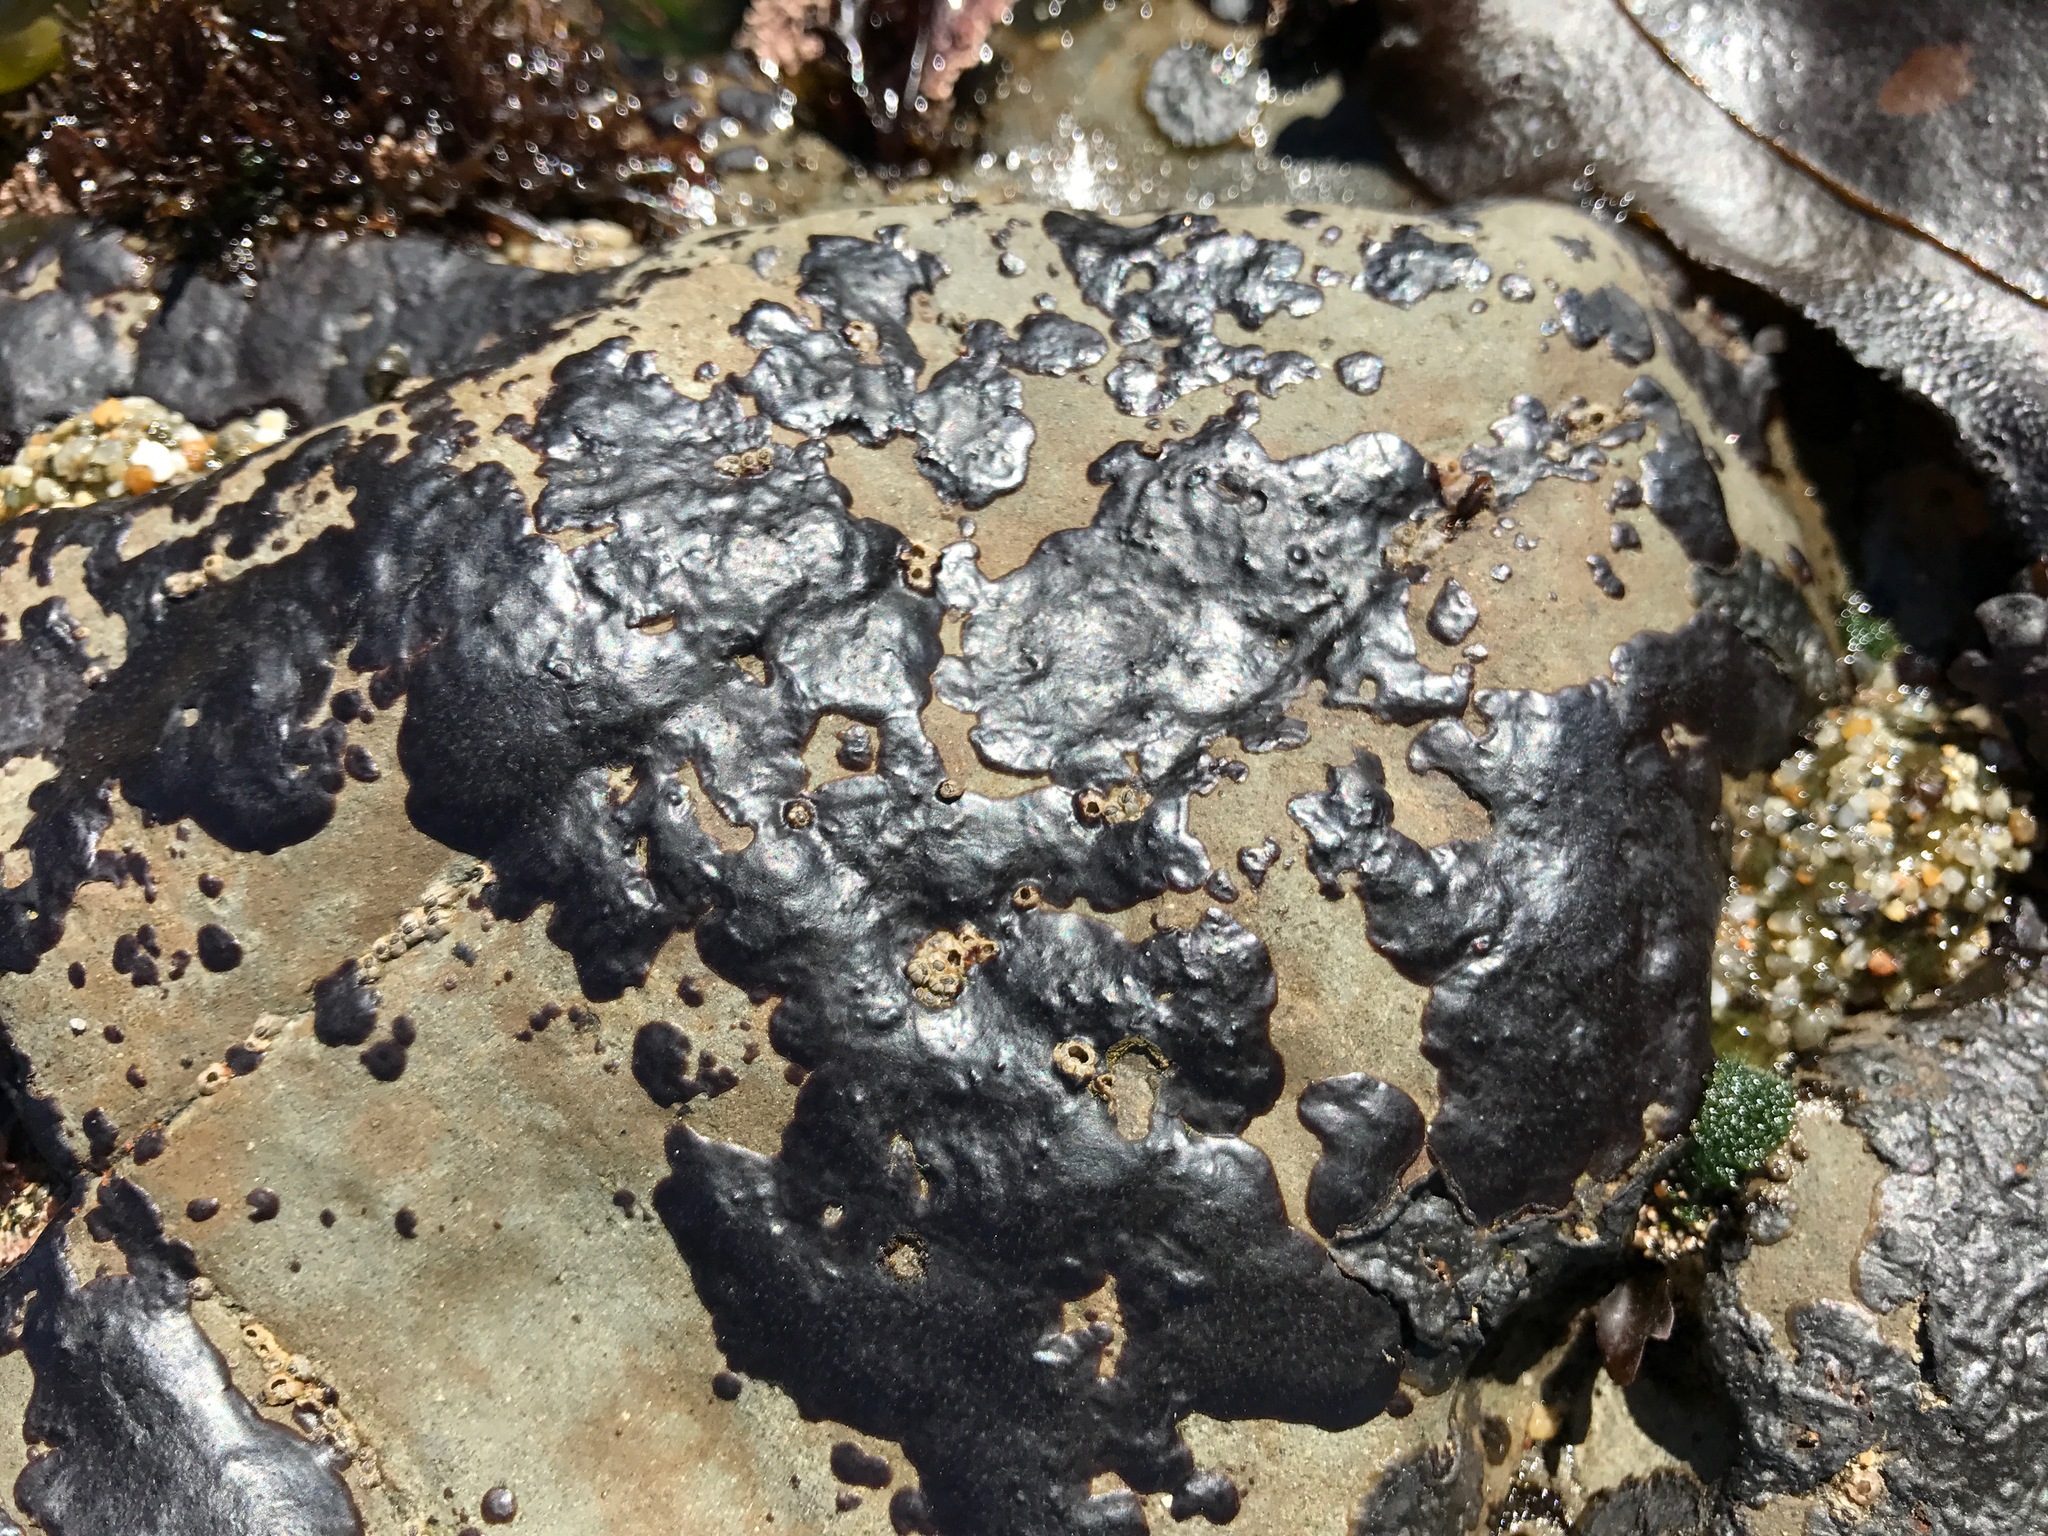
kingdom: Plantae
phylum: Rhodophyta
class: Florideophyceae
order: Gigartinales
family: Phyllophoraceae
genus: Mastocarpus
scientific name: Mastocarpus papillatus
